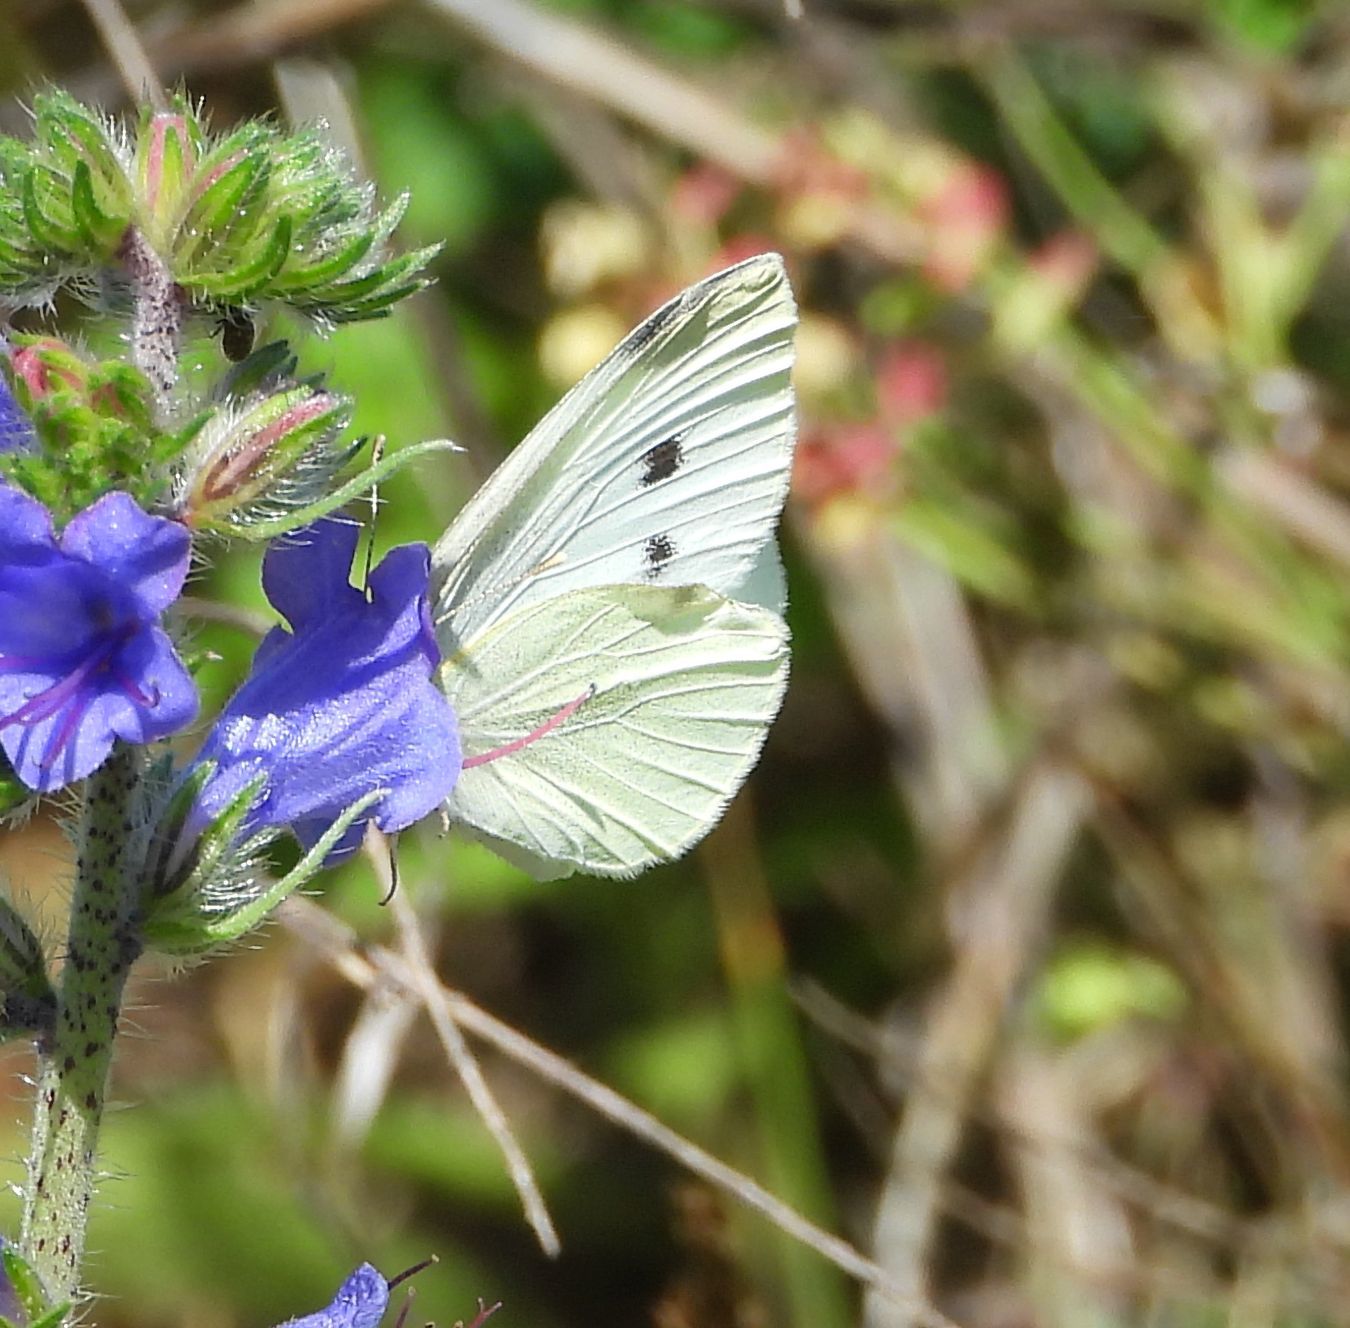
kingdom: Animalia
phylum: Arthropoda
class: Insecta
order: Lepidoptera
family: Pieridae
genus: Pieris
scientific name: Pieris rapae
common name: Small white
